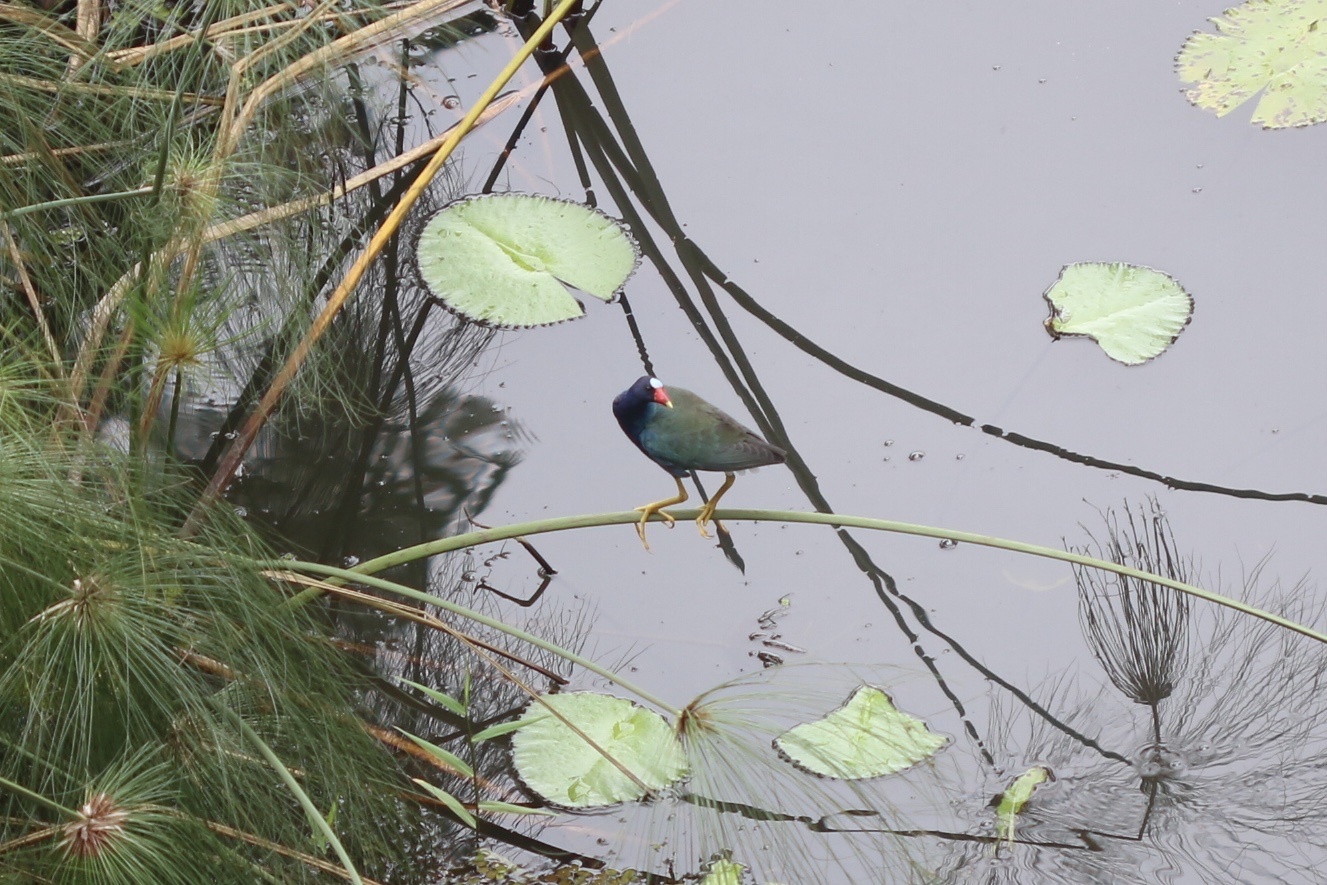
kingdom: Animalia
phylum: Chordata
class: Aves
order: Gruiformes
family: Rallidae
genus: Porphyrio
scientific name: Porphyrio martinica
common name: Purple gallinule
